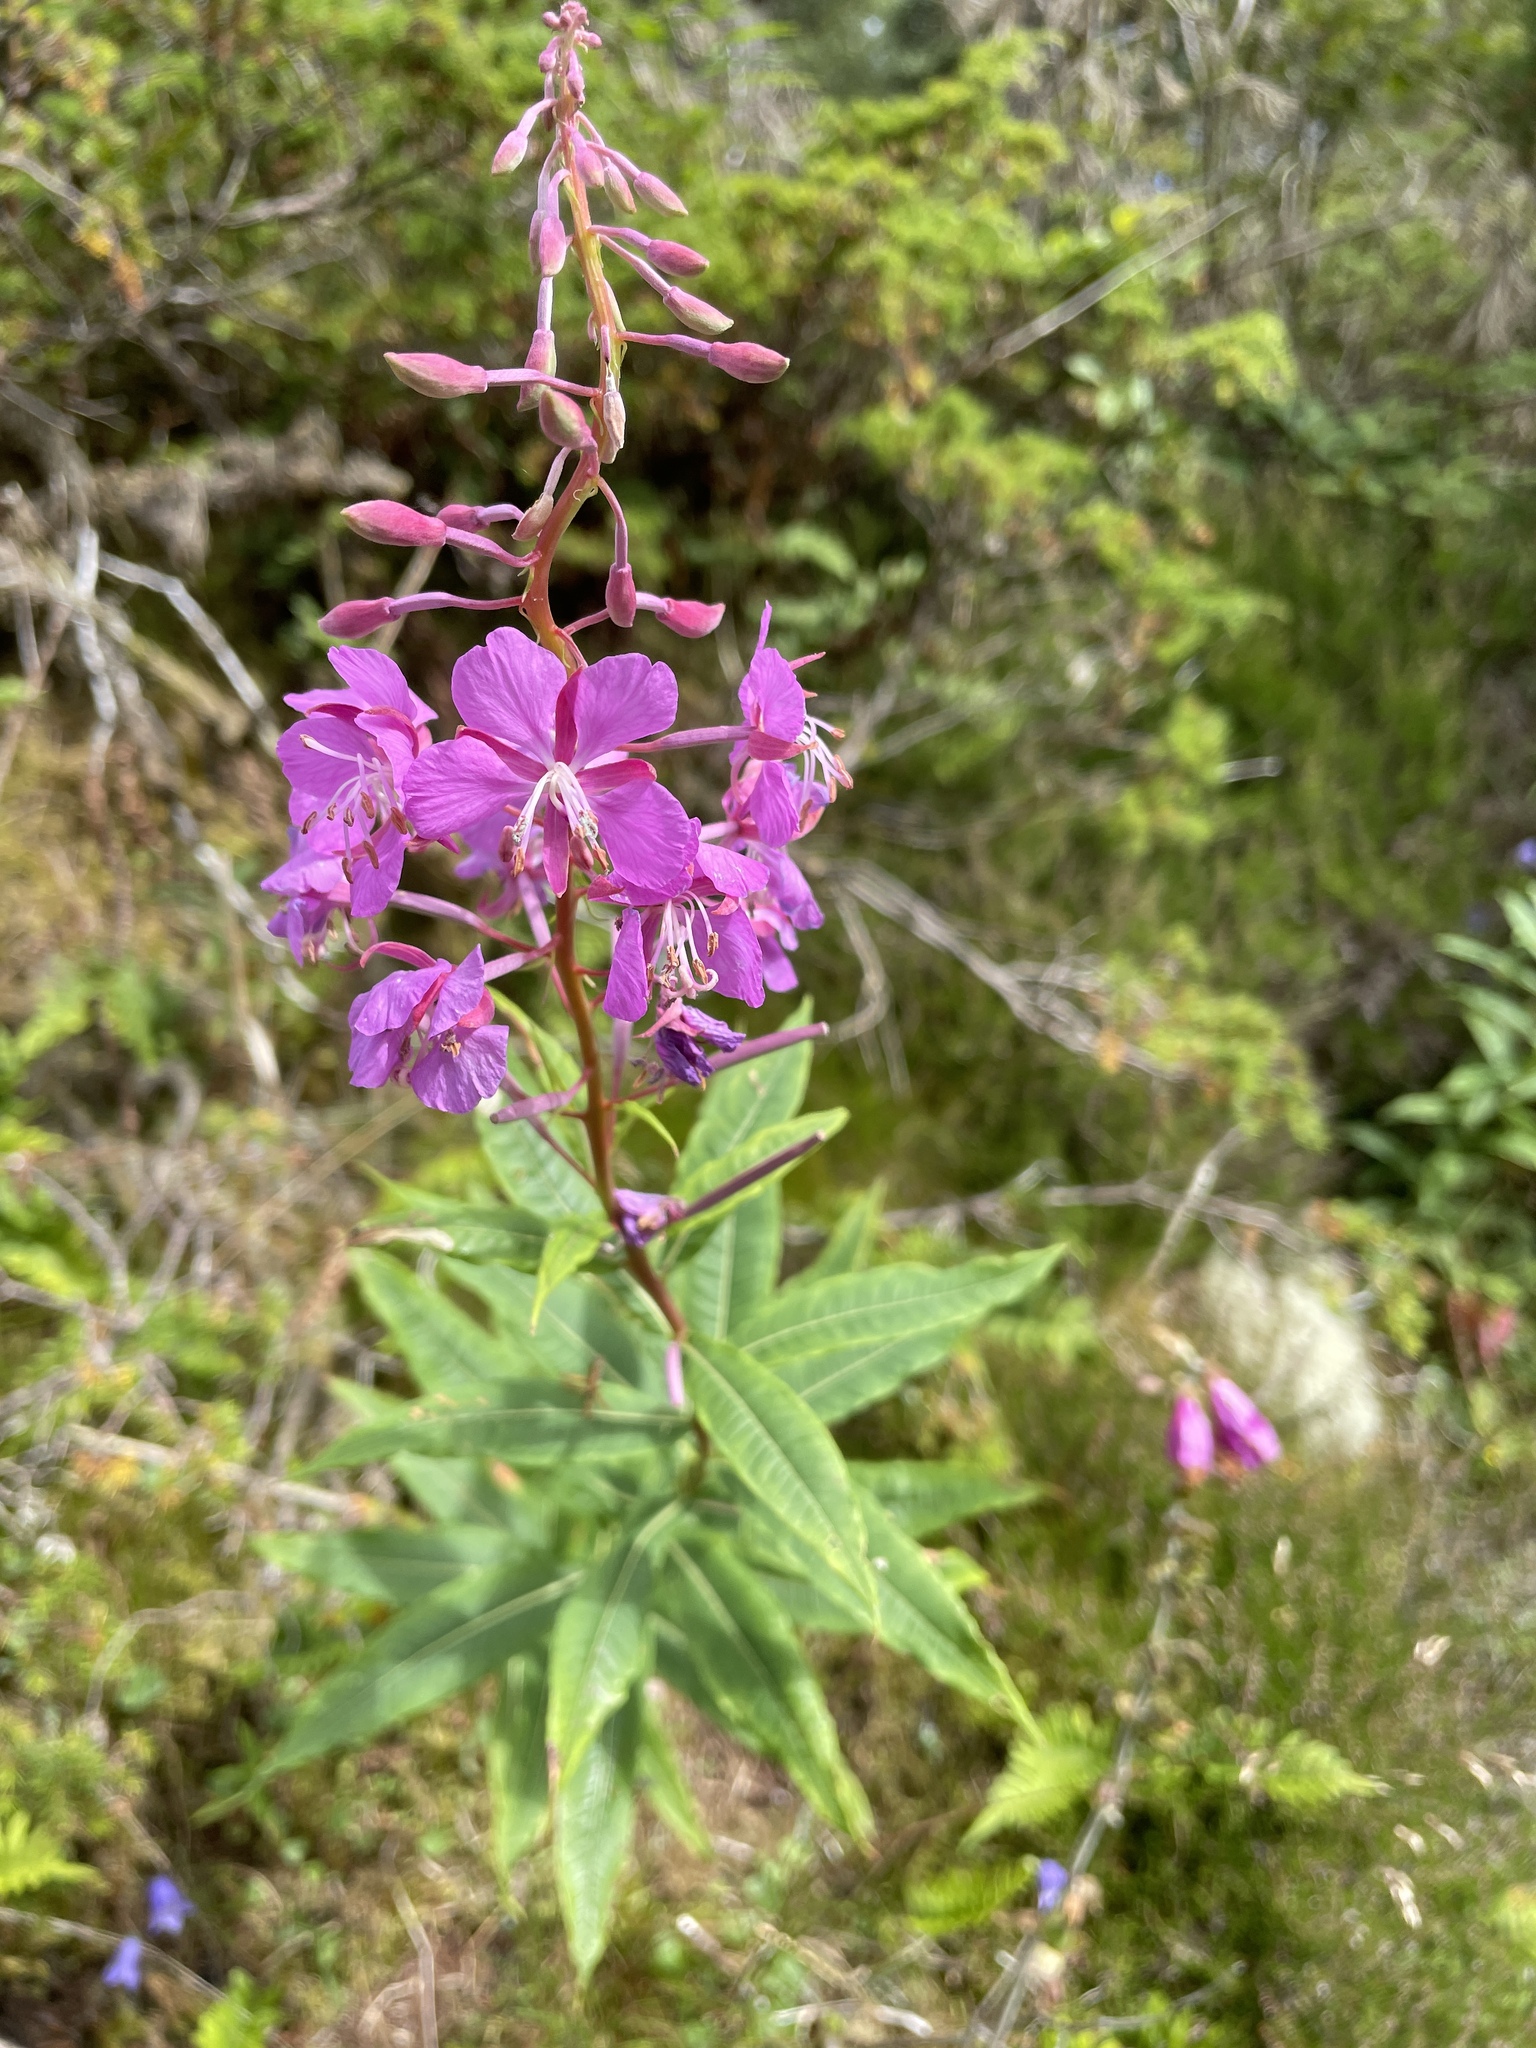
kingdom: Plantae
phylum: Tracheophyta
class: Magnoliopsida
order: Myrtales
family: Onagraceae
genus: Chamaenerion
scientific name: Chamaenerion angustifolium
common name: Fireweed
